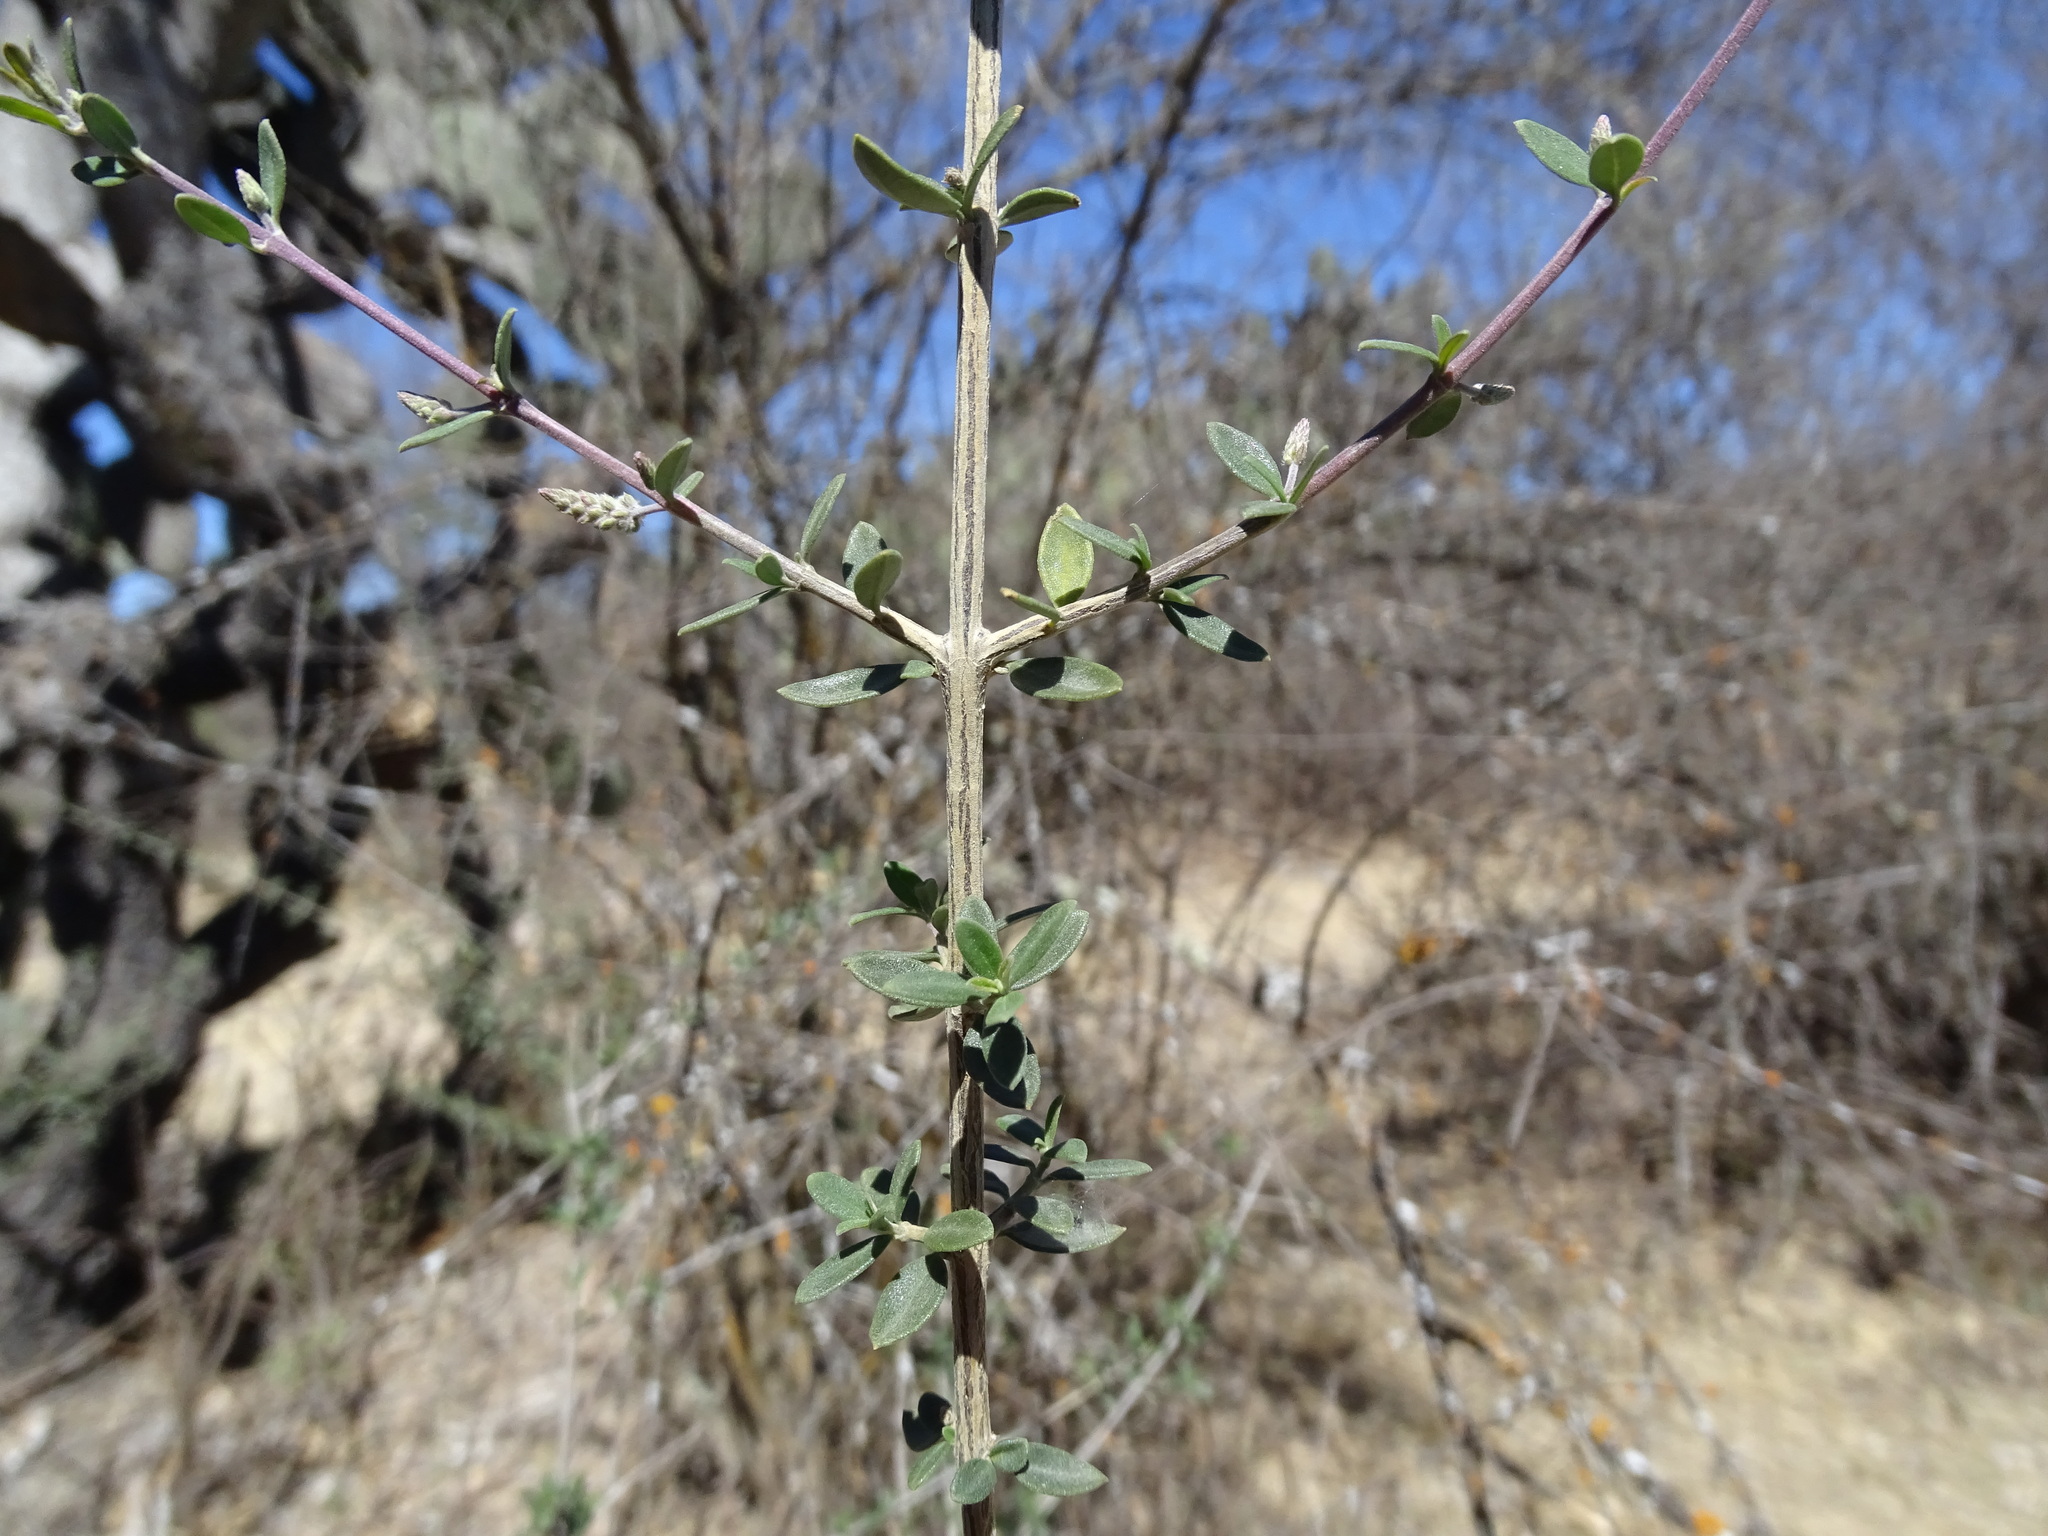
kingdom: Plantae
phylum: Tracheophyta
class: Magnoliopsida
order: Lamiales
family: Verbenaceae
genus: Aloysia
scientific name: Aloysia gratissima
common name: Common bee-brush
